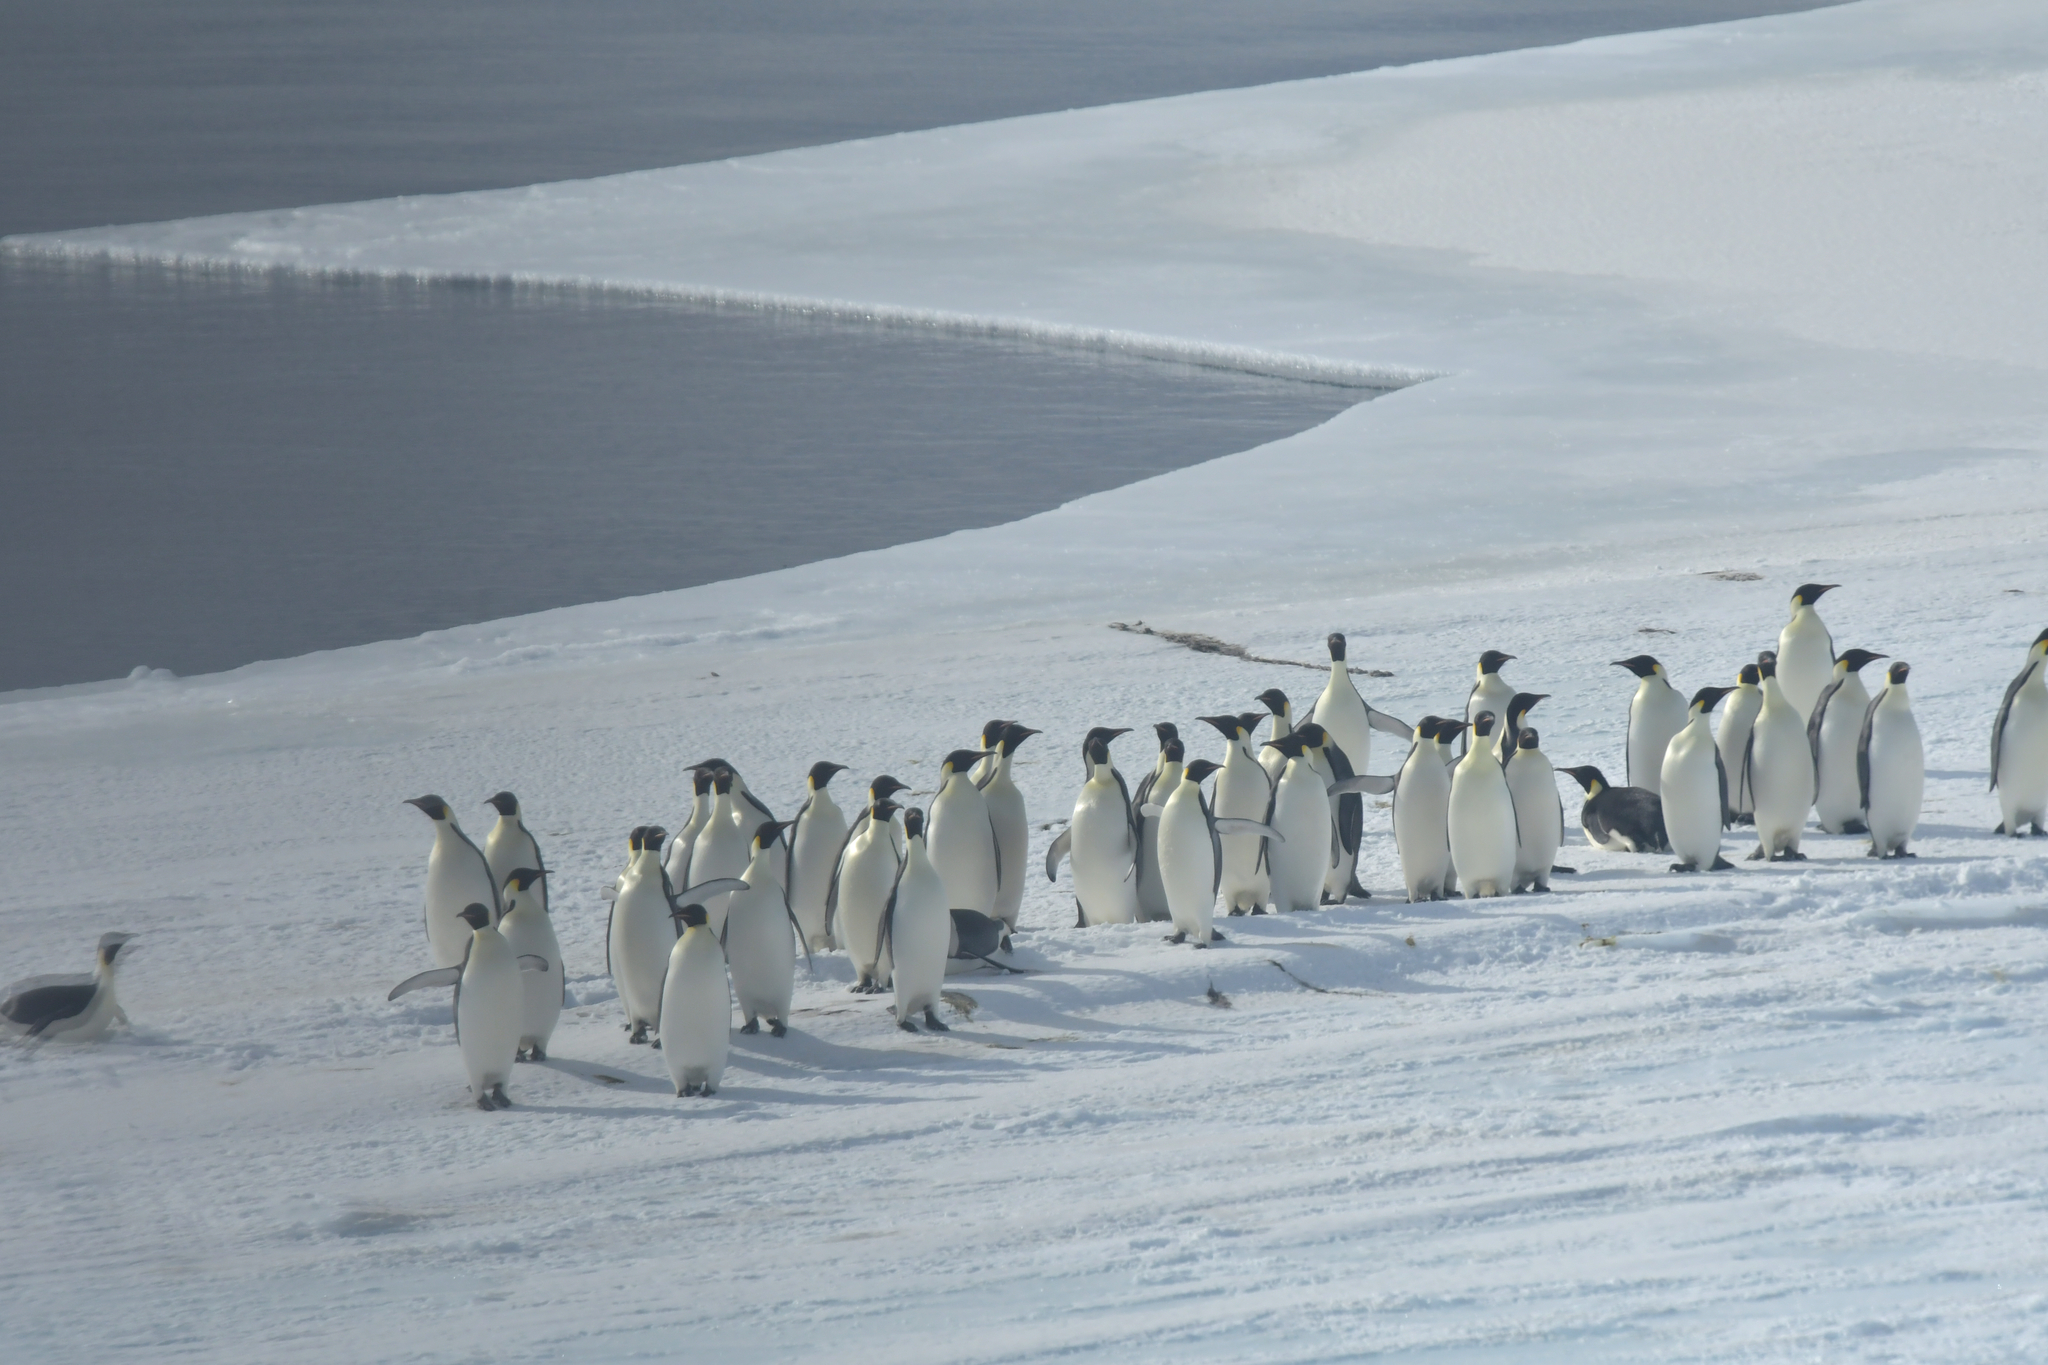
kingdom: Animalia
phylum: Chordata
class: Aves
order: Sphenisciformes
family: Spheniscidae
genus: Aptenodytes
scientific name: Aptenodytes forsteri
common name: Emperor penguin
